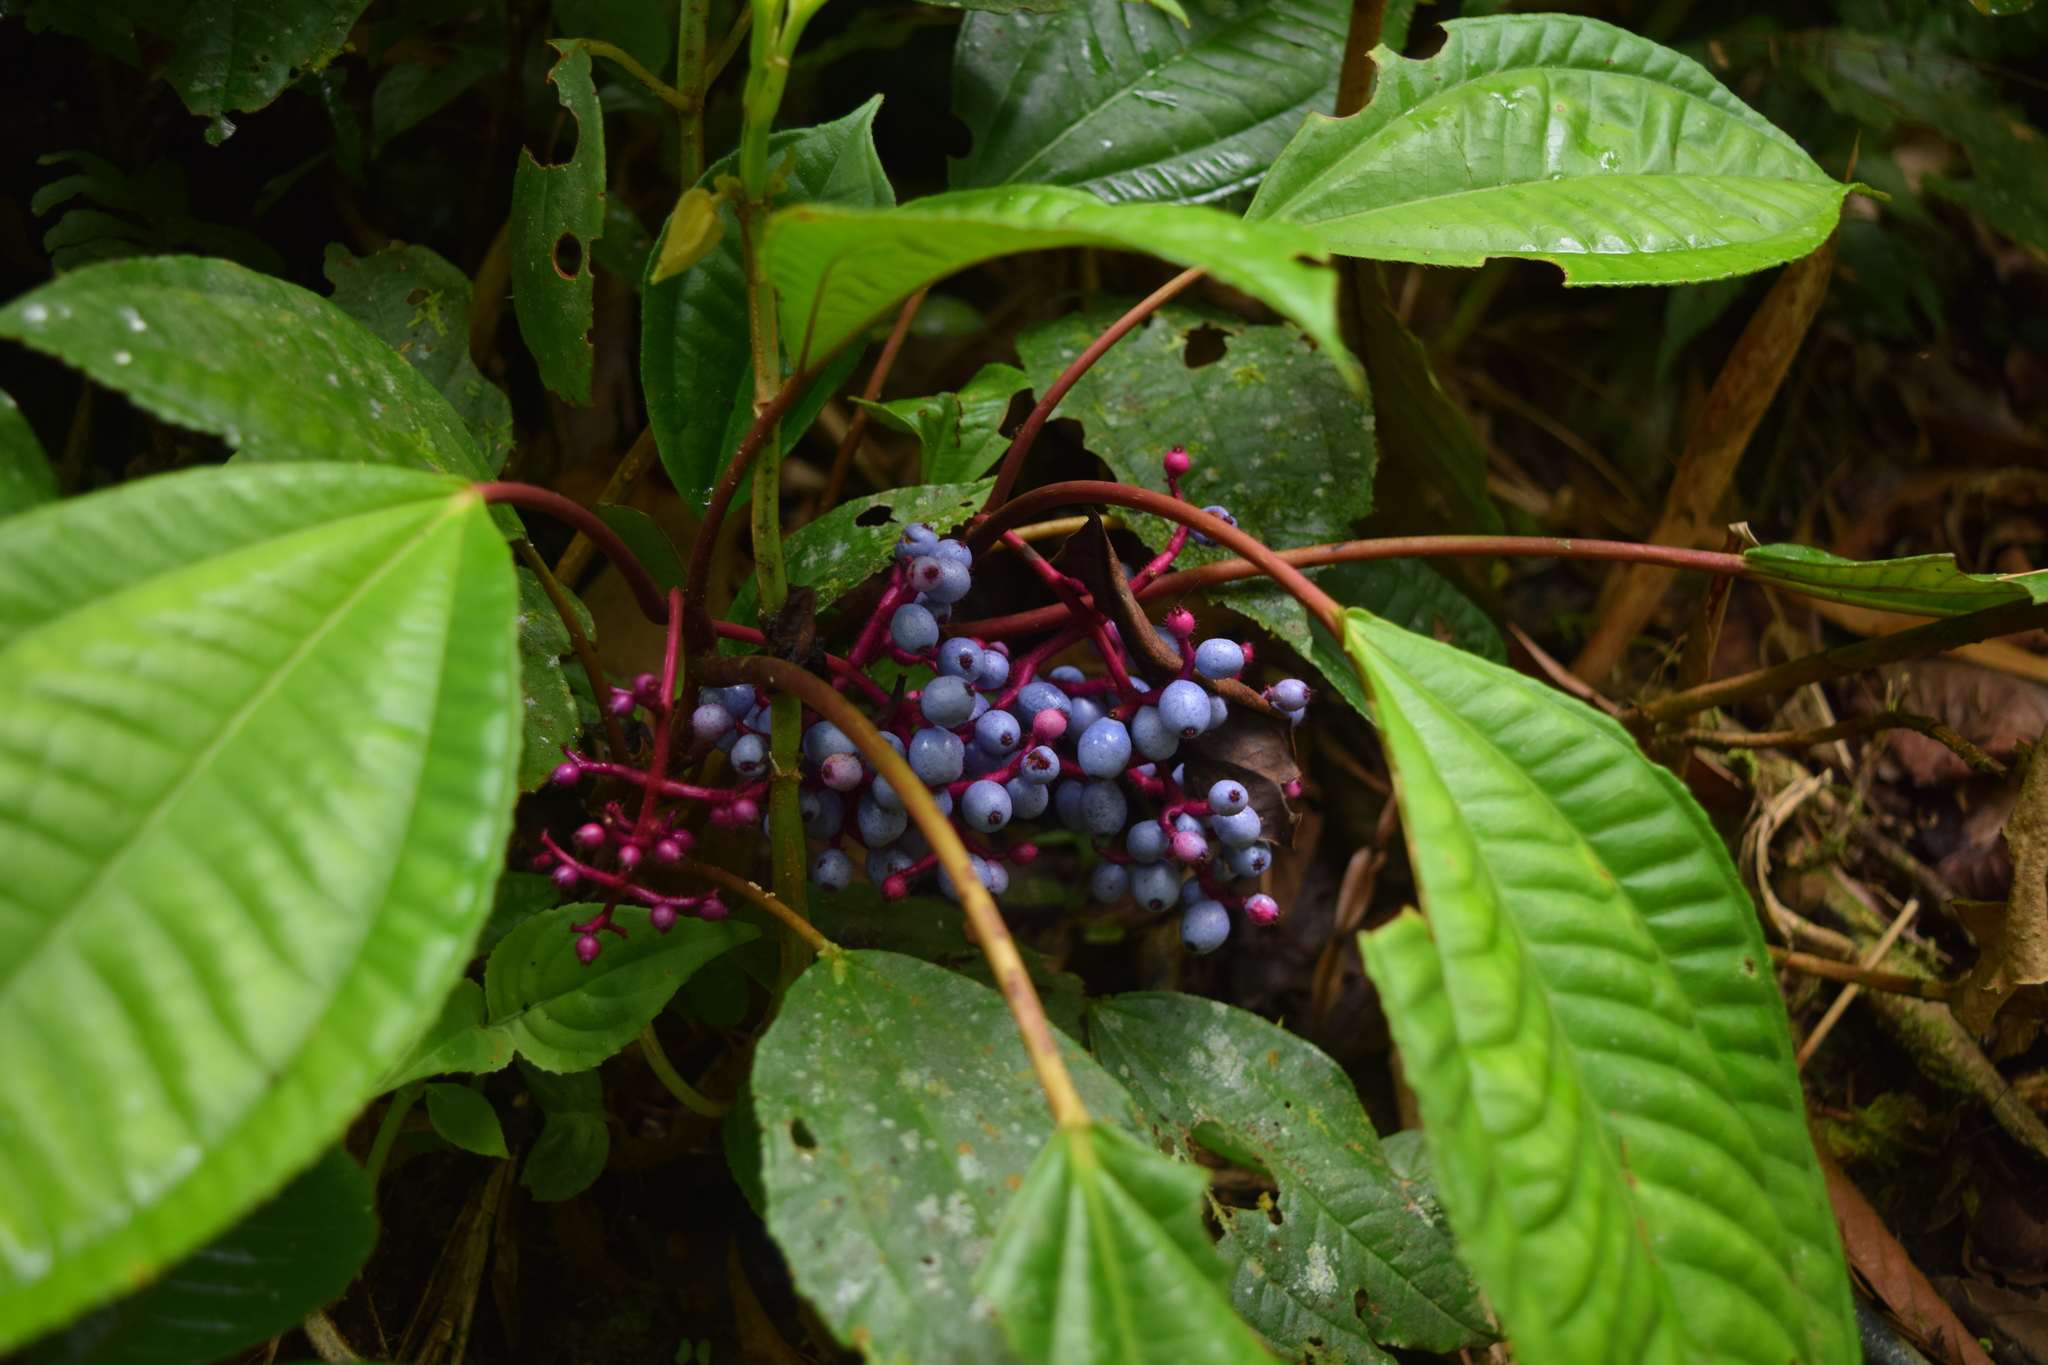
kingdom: Plantae
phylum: Tracheophyta
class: Magnoliopsida
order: Myrtales
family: Melastomataceae
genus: Miconia
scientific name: Miconia procumbens
